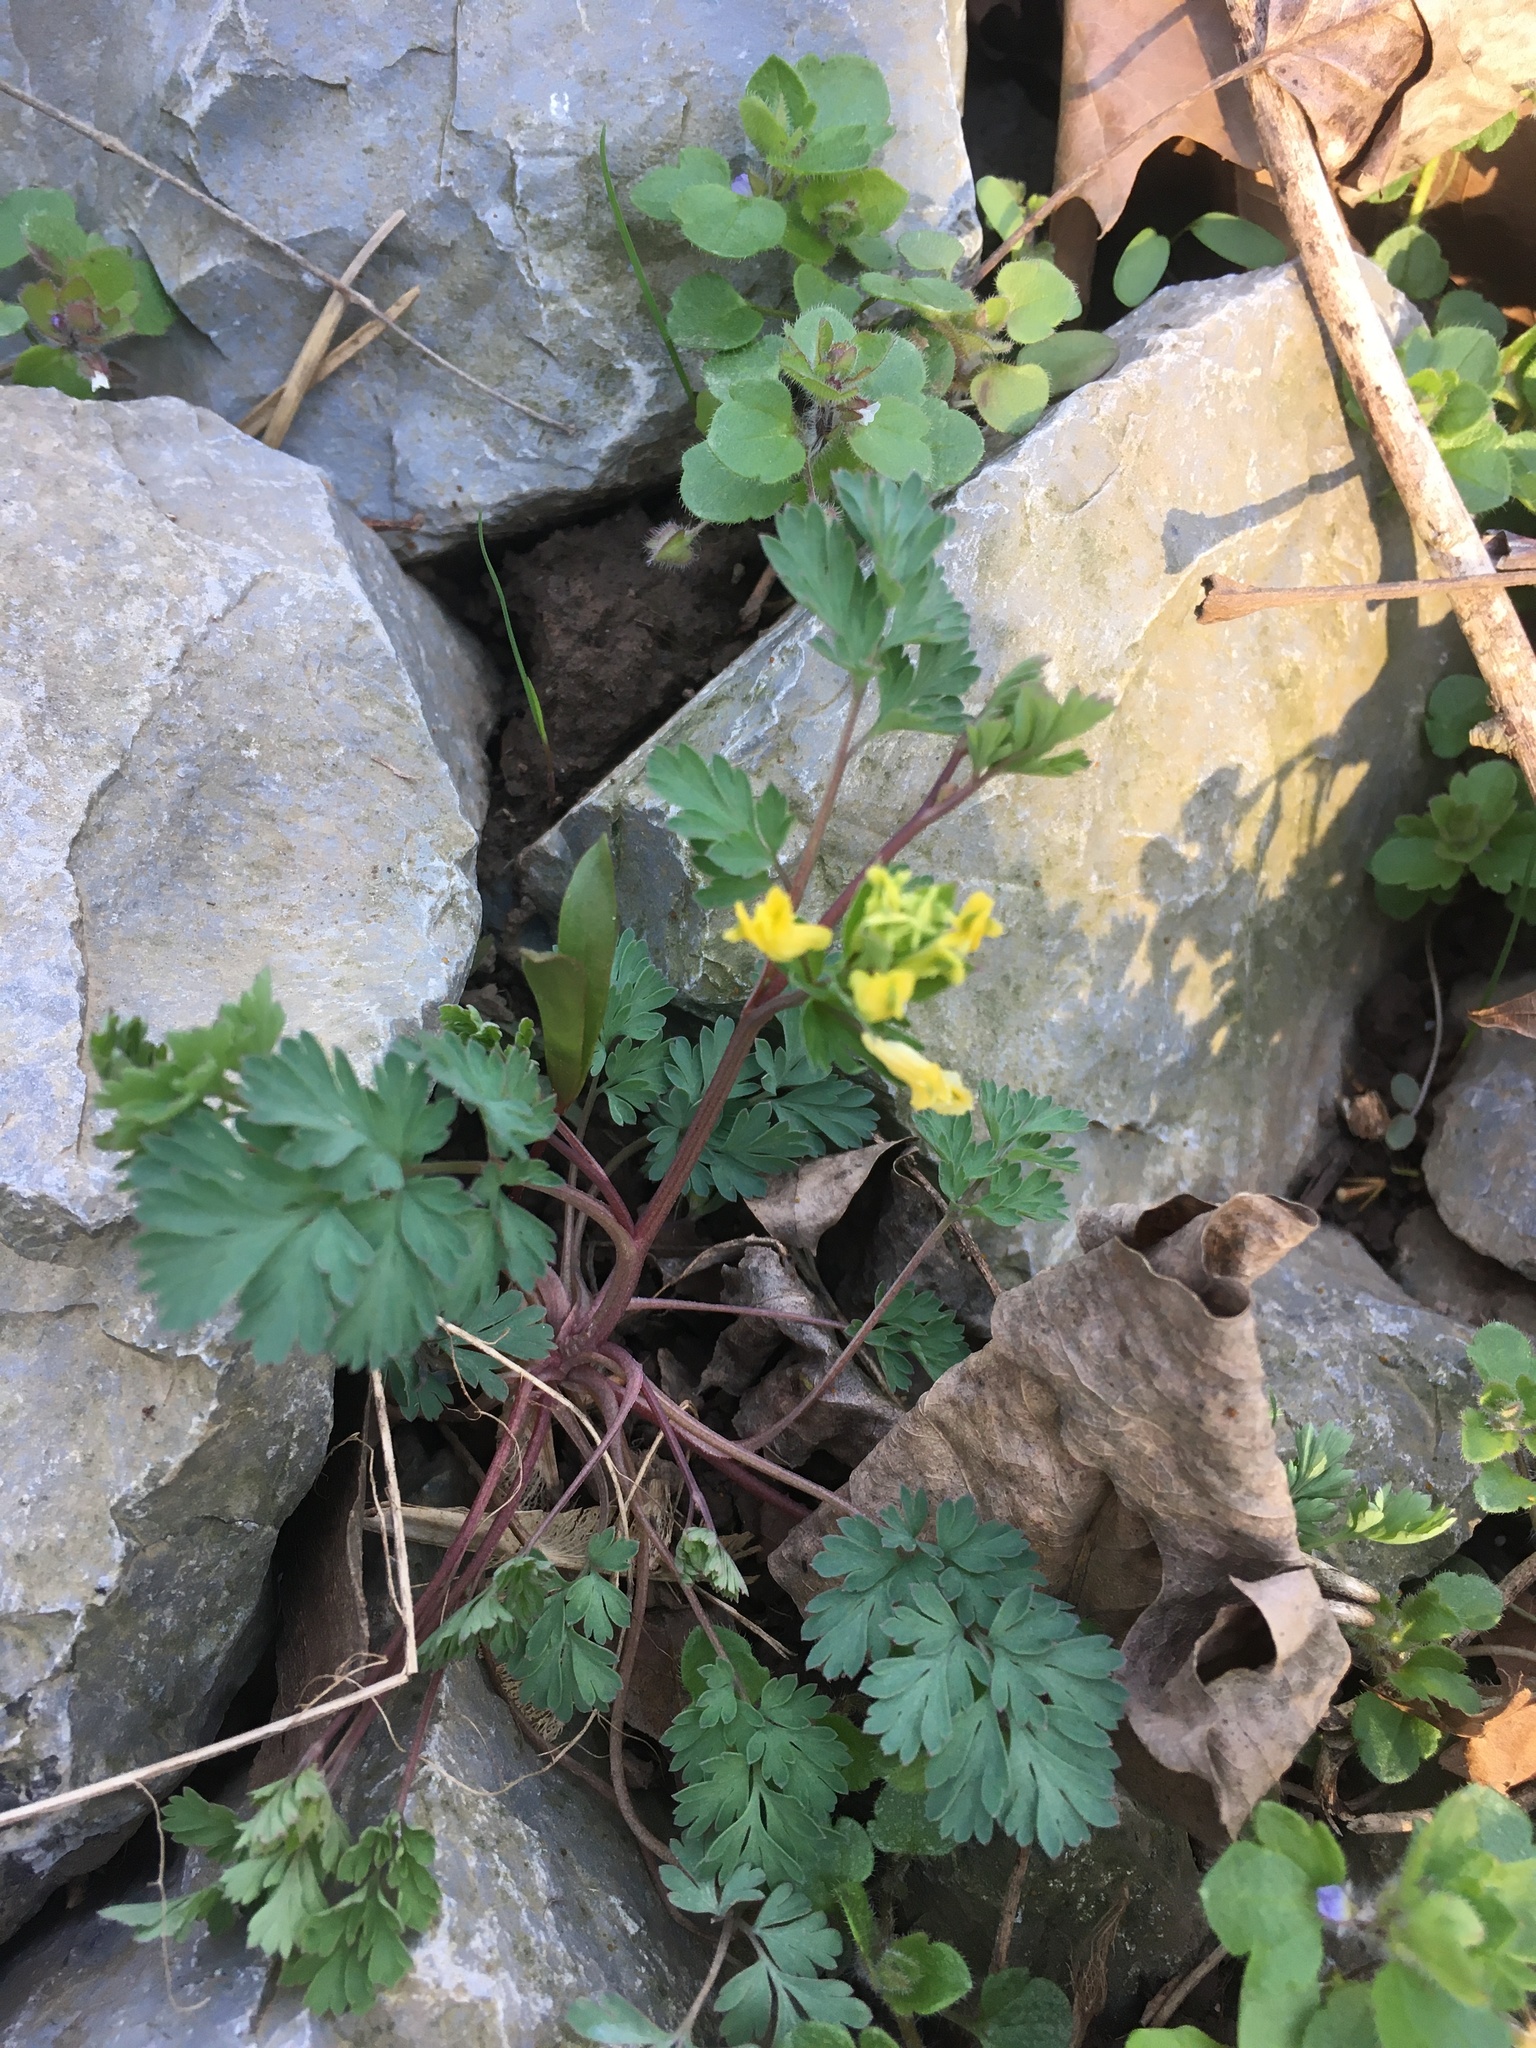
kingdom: Plantae
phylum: Tracheophyta
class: Magnoliopsida
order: Ranunculales
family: Papaveraceae
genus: Corydalis
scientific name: Corydalis flavula
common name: Yellow corydalis
